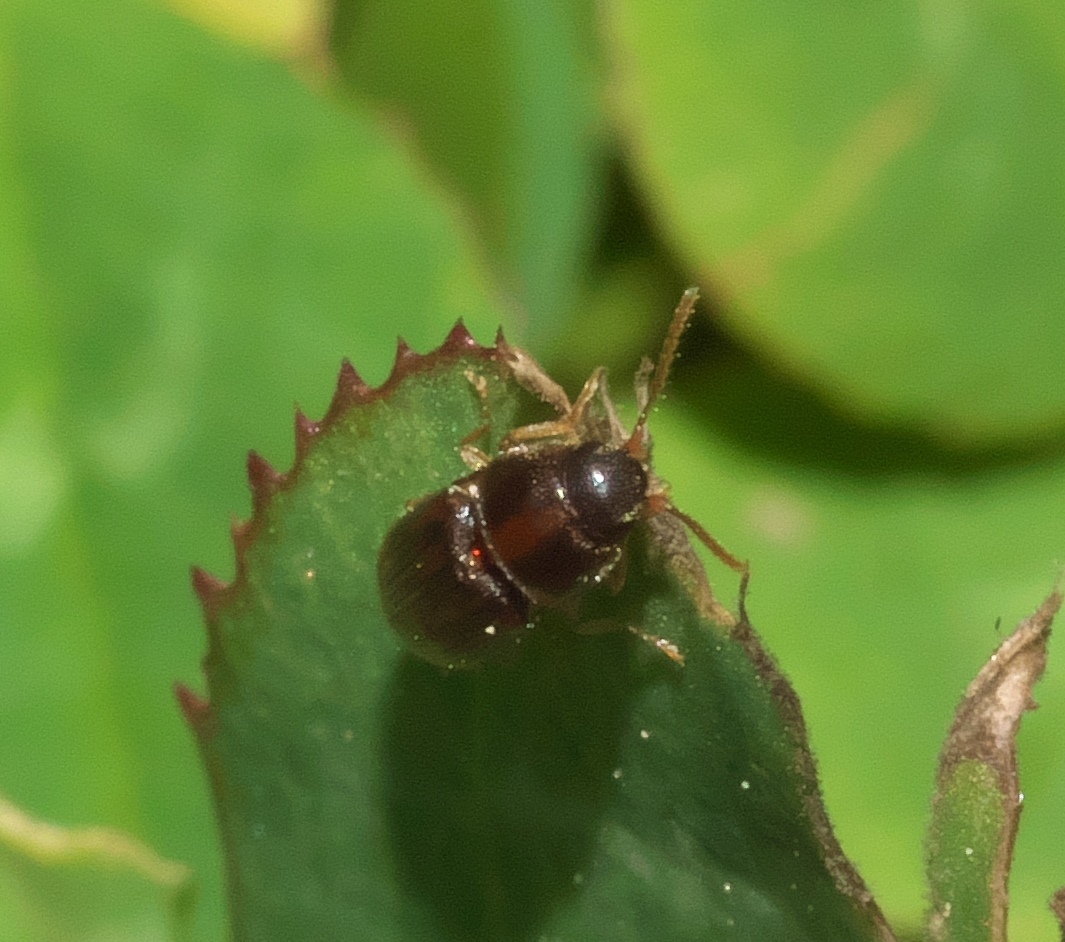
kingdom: Animalia
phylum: Arthropoda
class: Insecta
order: Coleoptera
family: Elateridae
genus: Monocrepidius
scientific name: Monocrepidius bellus
